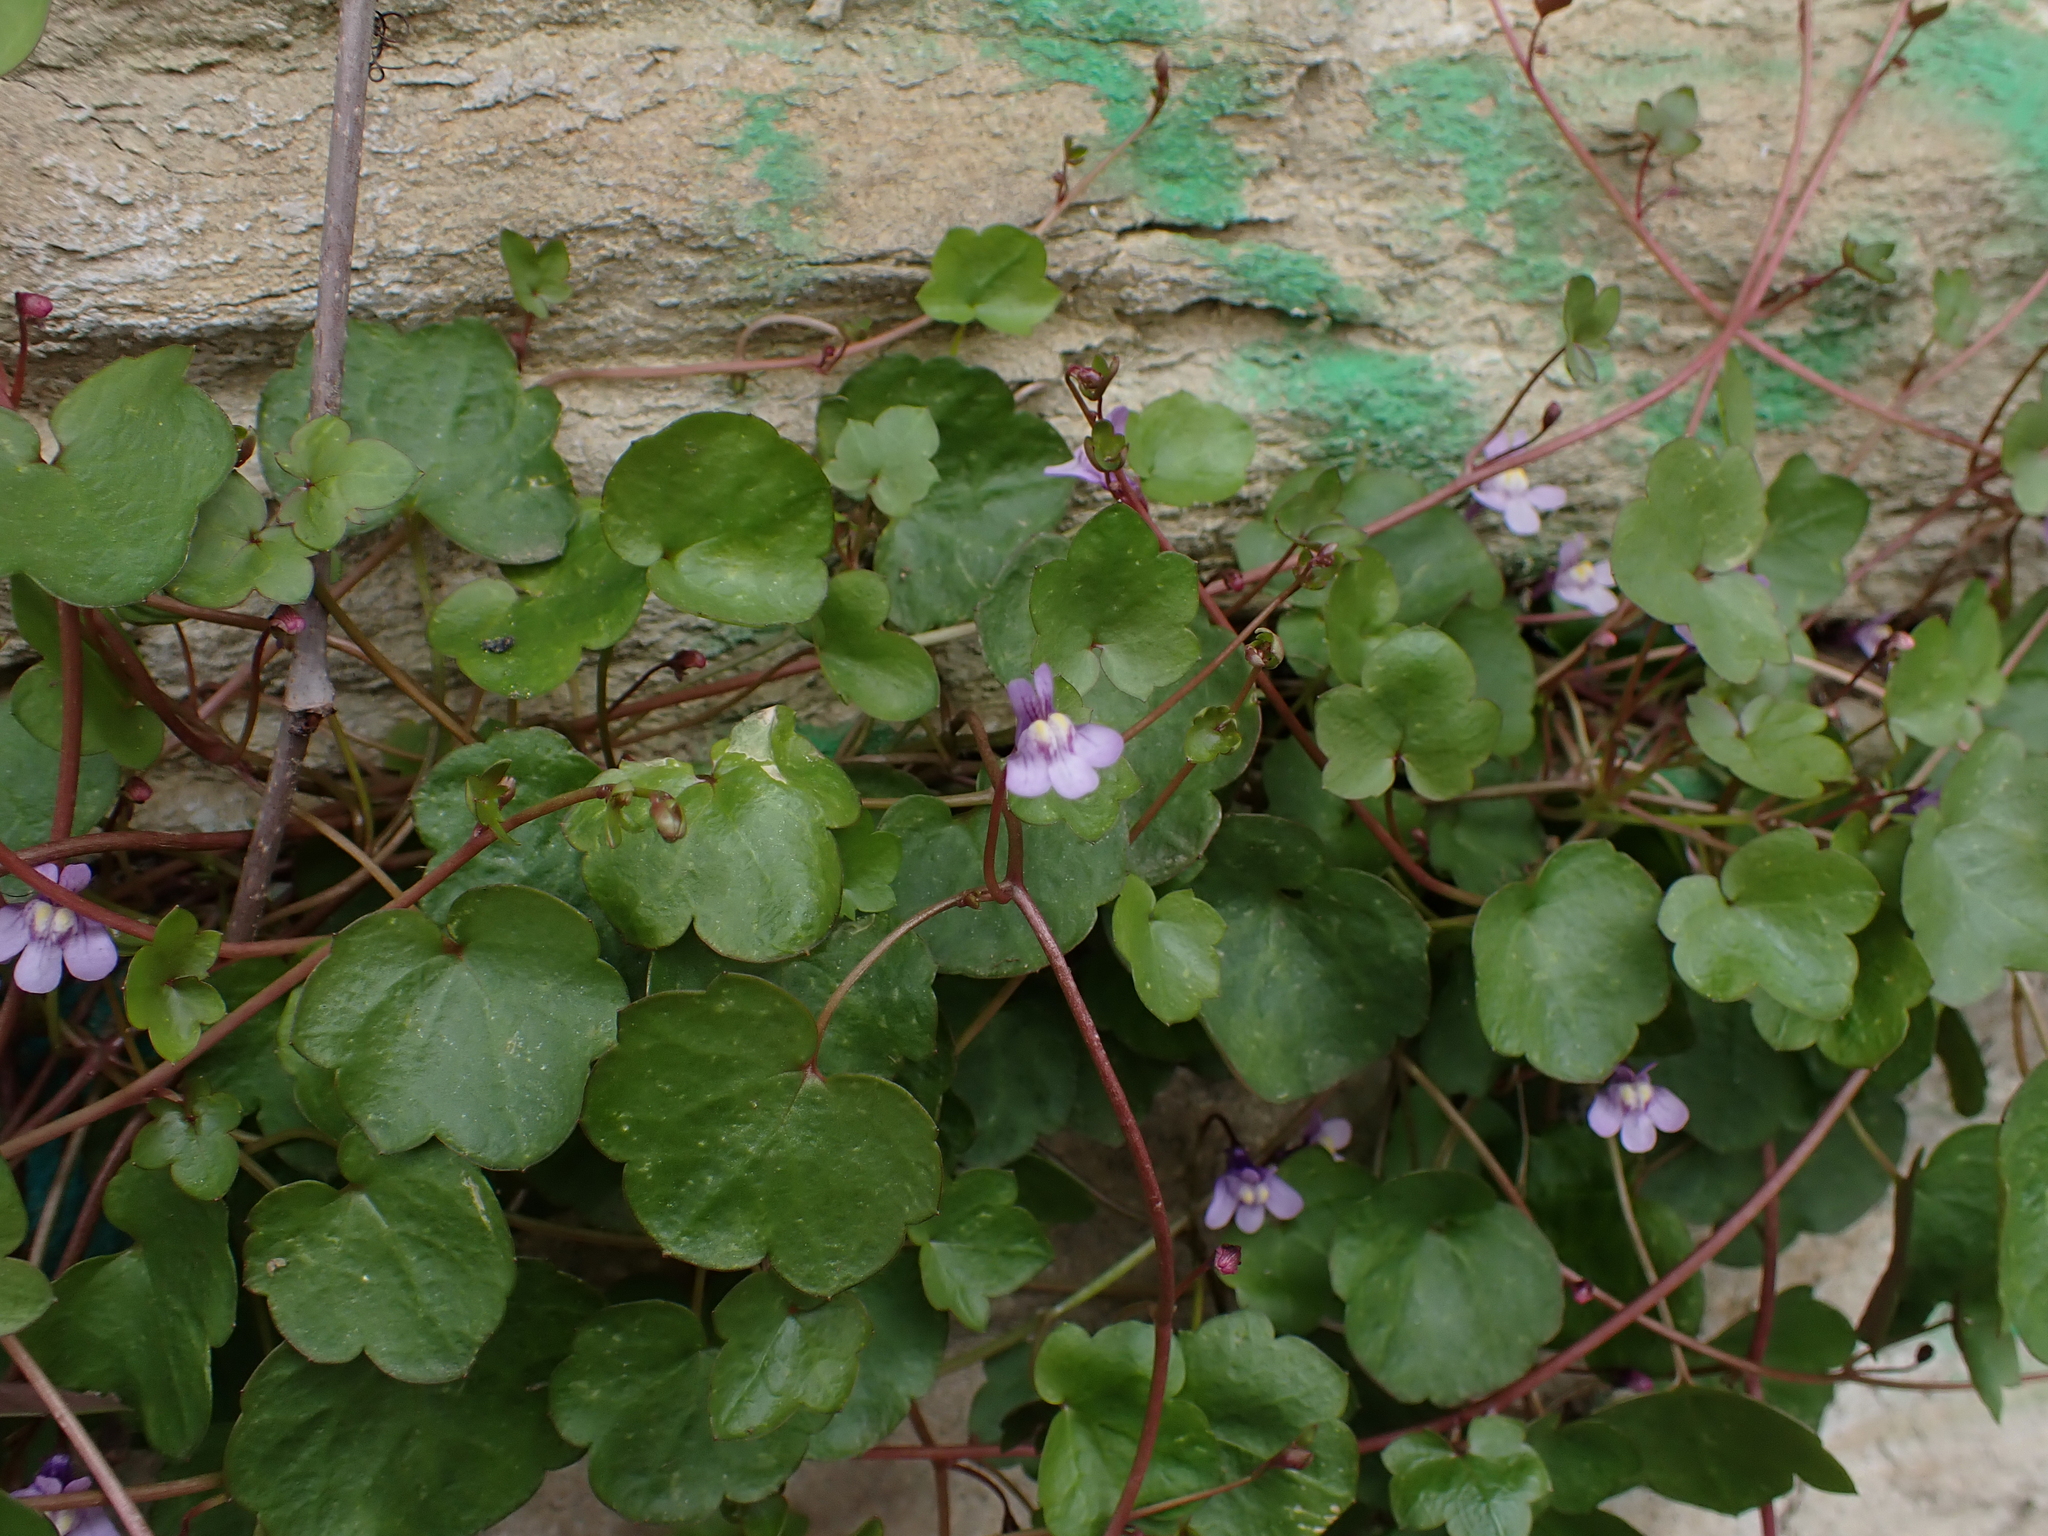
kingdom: Plantae
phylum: Tracheophyta
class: Magnoliopsida
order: Lamiales
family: Plantaginaceae
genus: Cymbalaria
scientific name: Cymbalaria muralis
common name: Ivy-leaved toadflax
